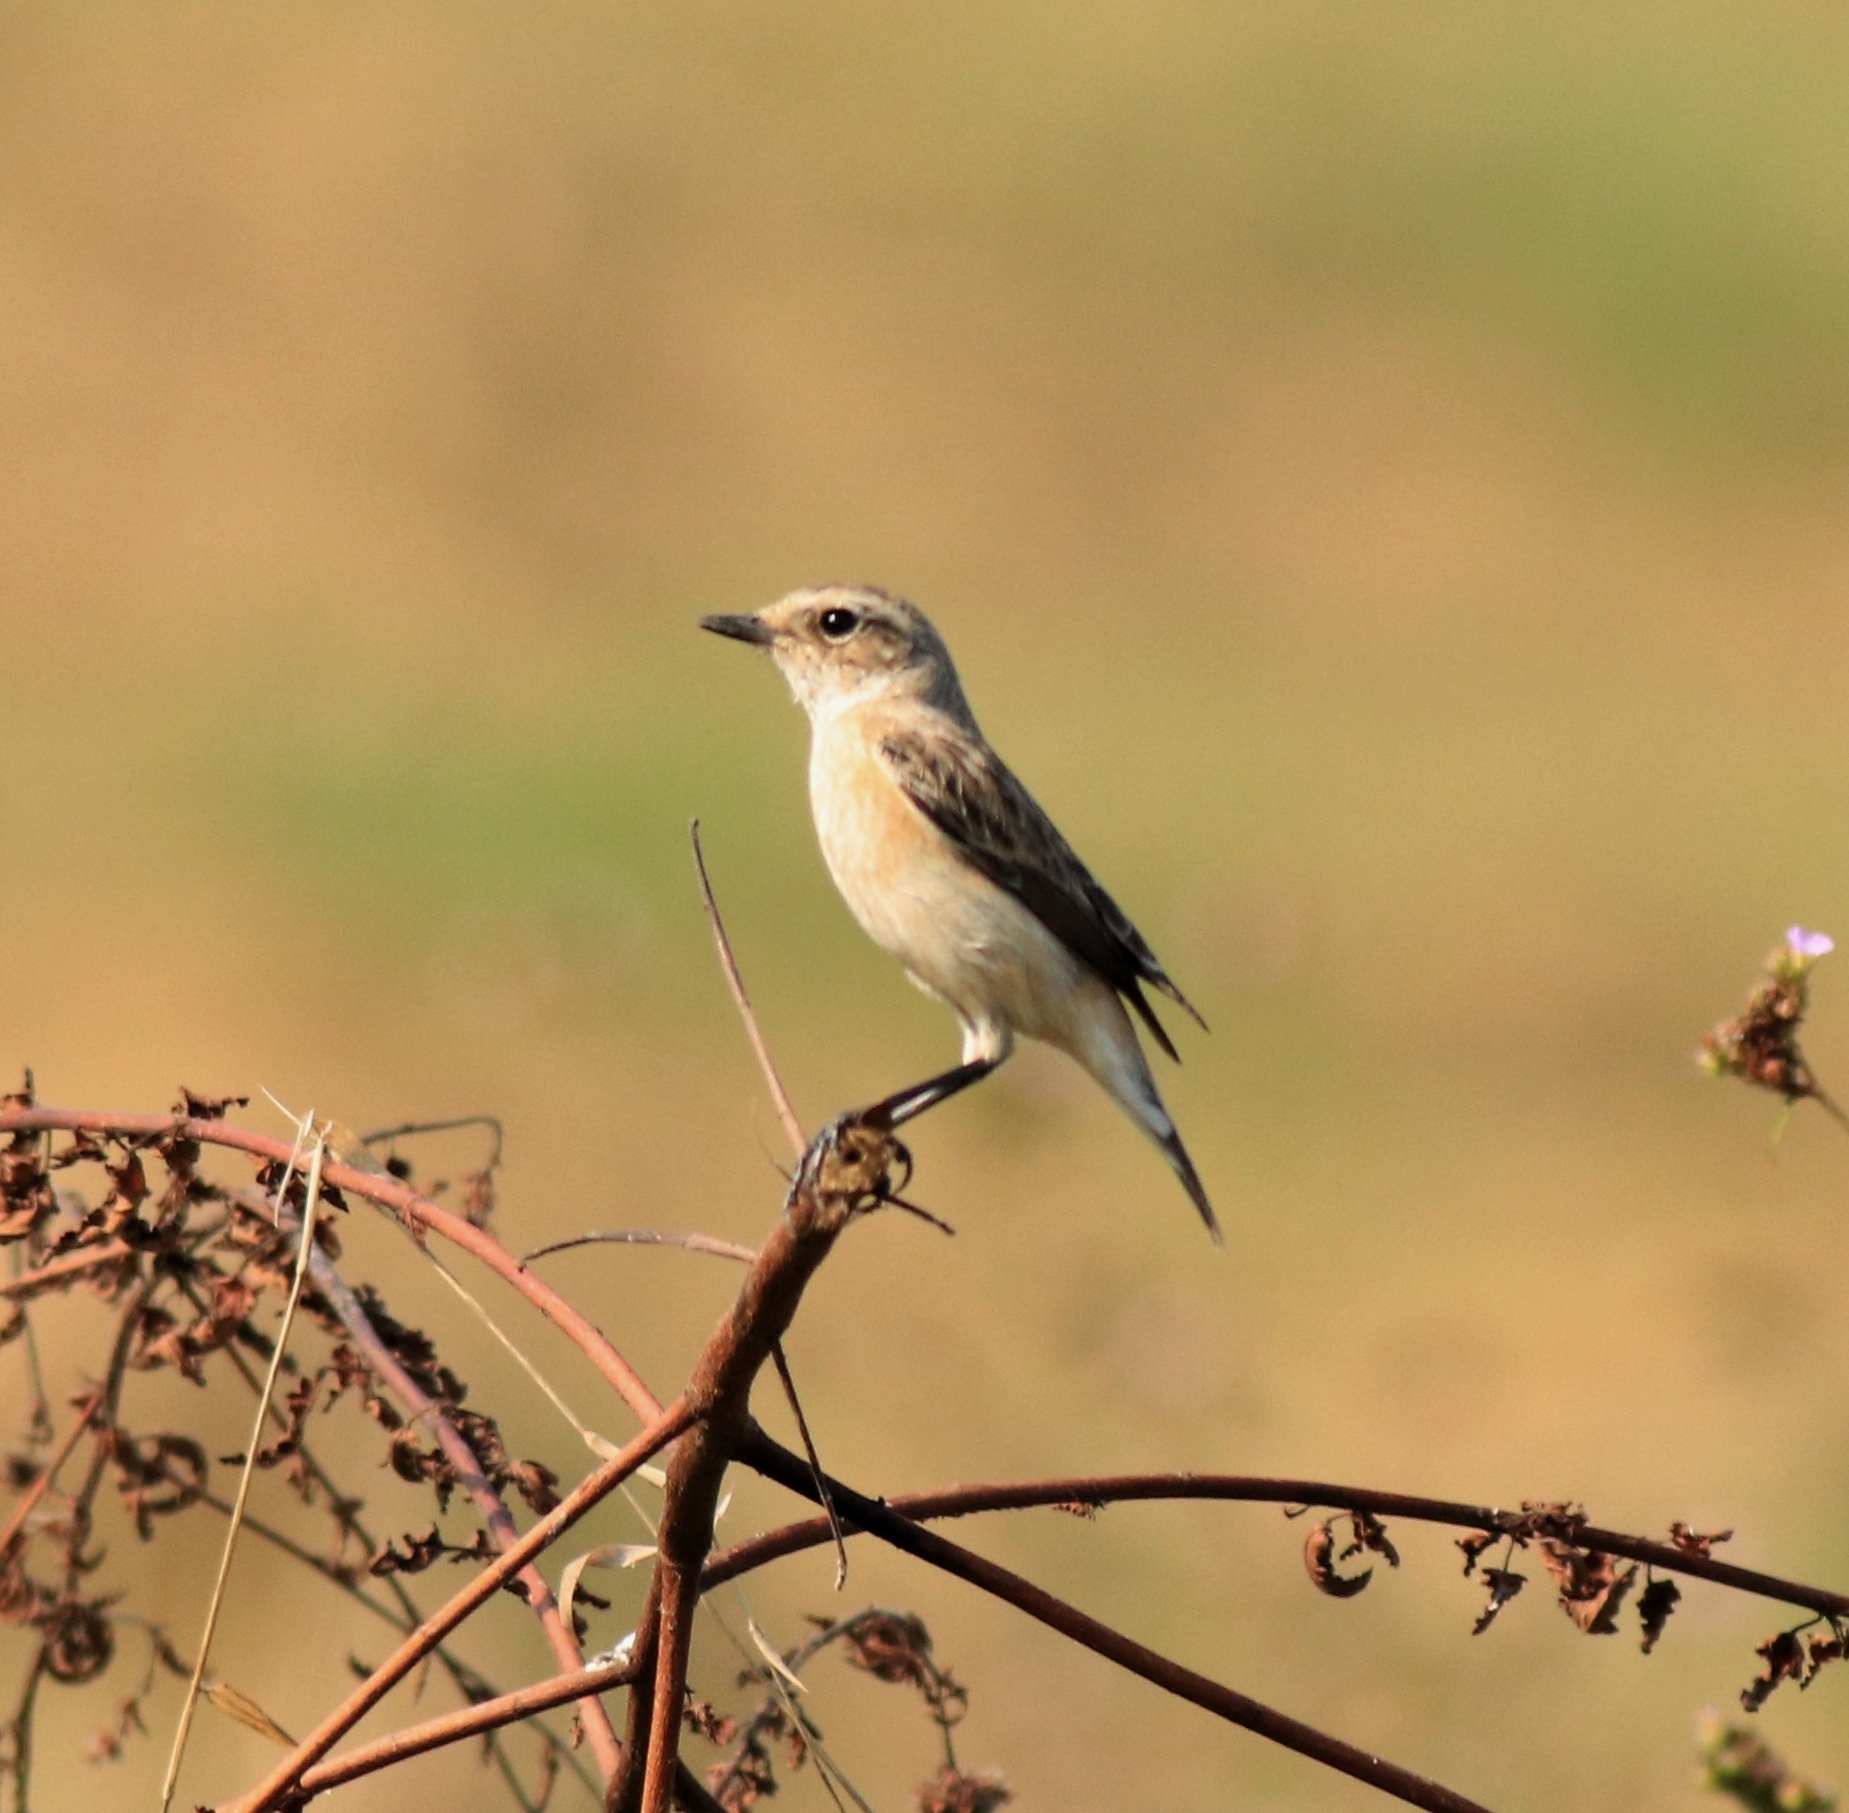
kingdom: Animalia
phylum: Chordata
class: Aves
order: Passeriformes
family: Muscicapidae
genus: Saxicola
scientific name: Saxicola maurus
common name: Siberian stonechat
